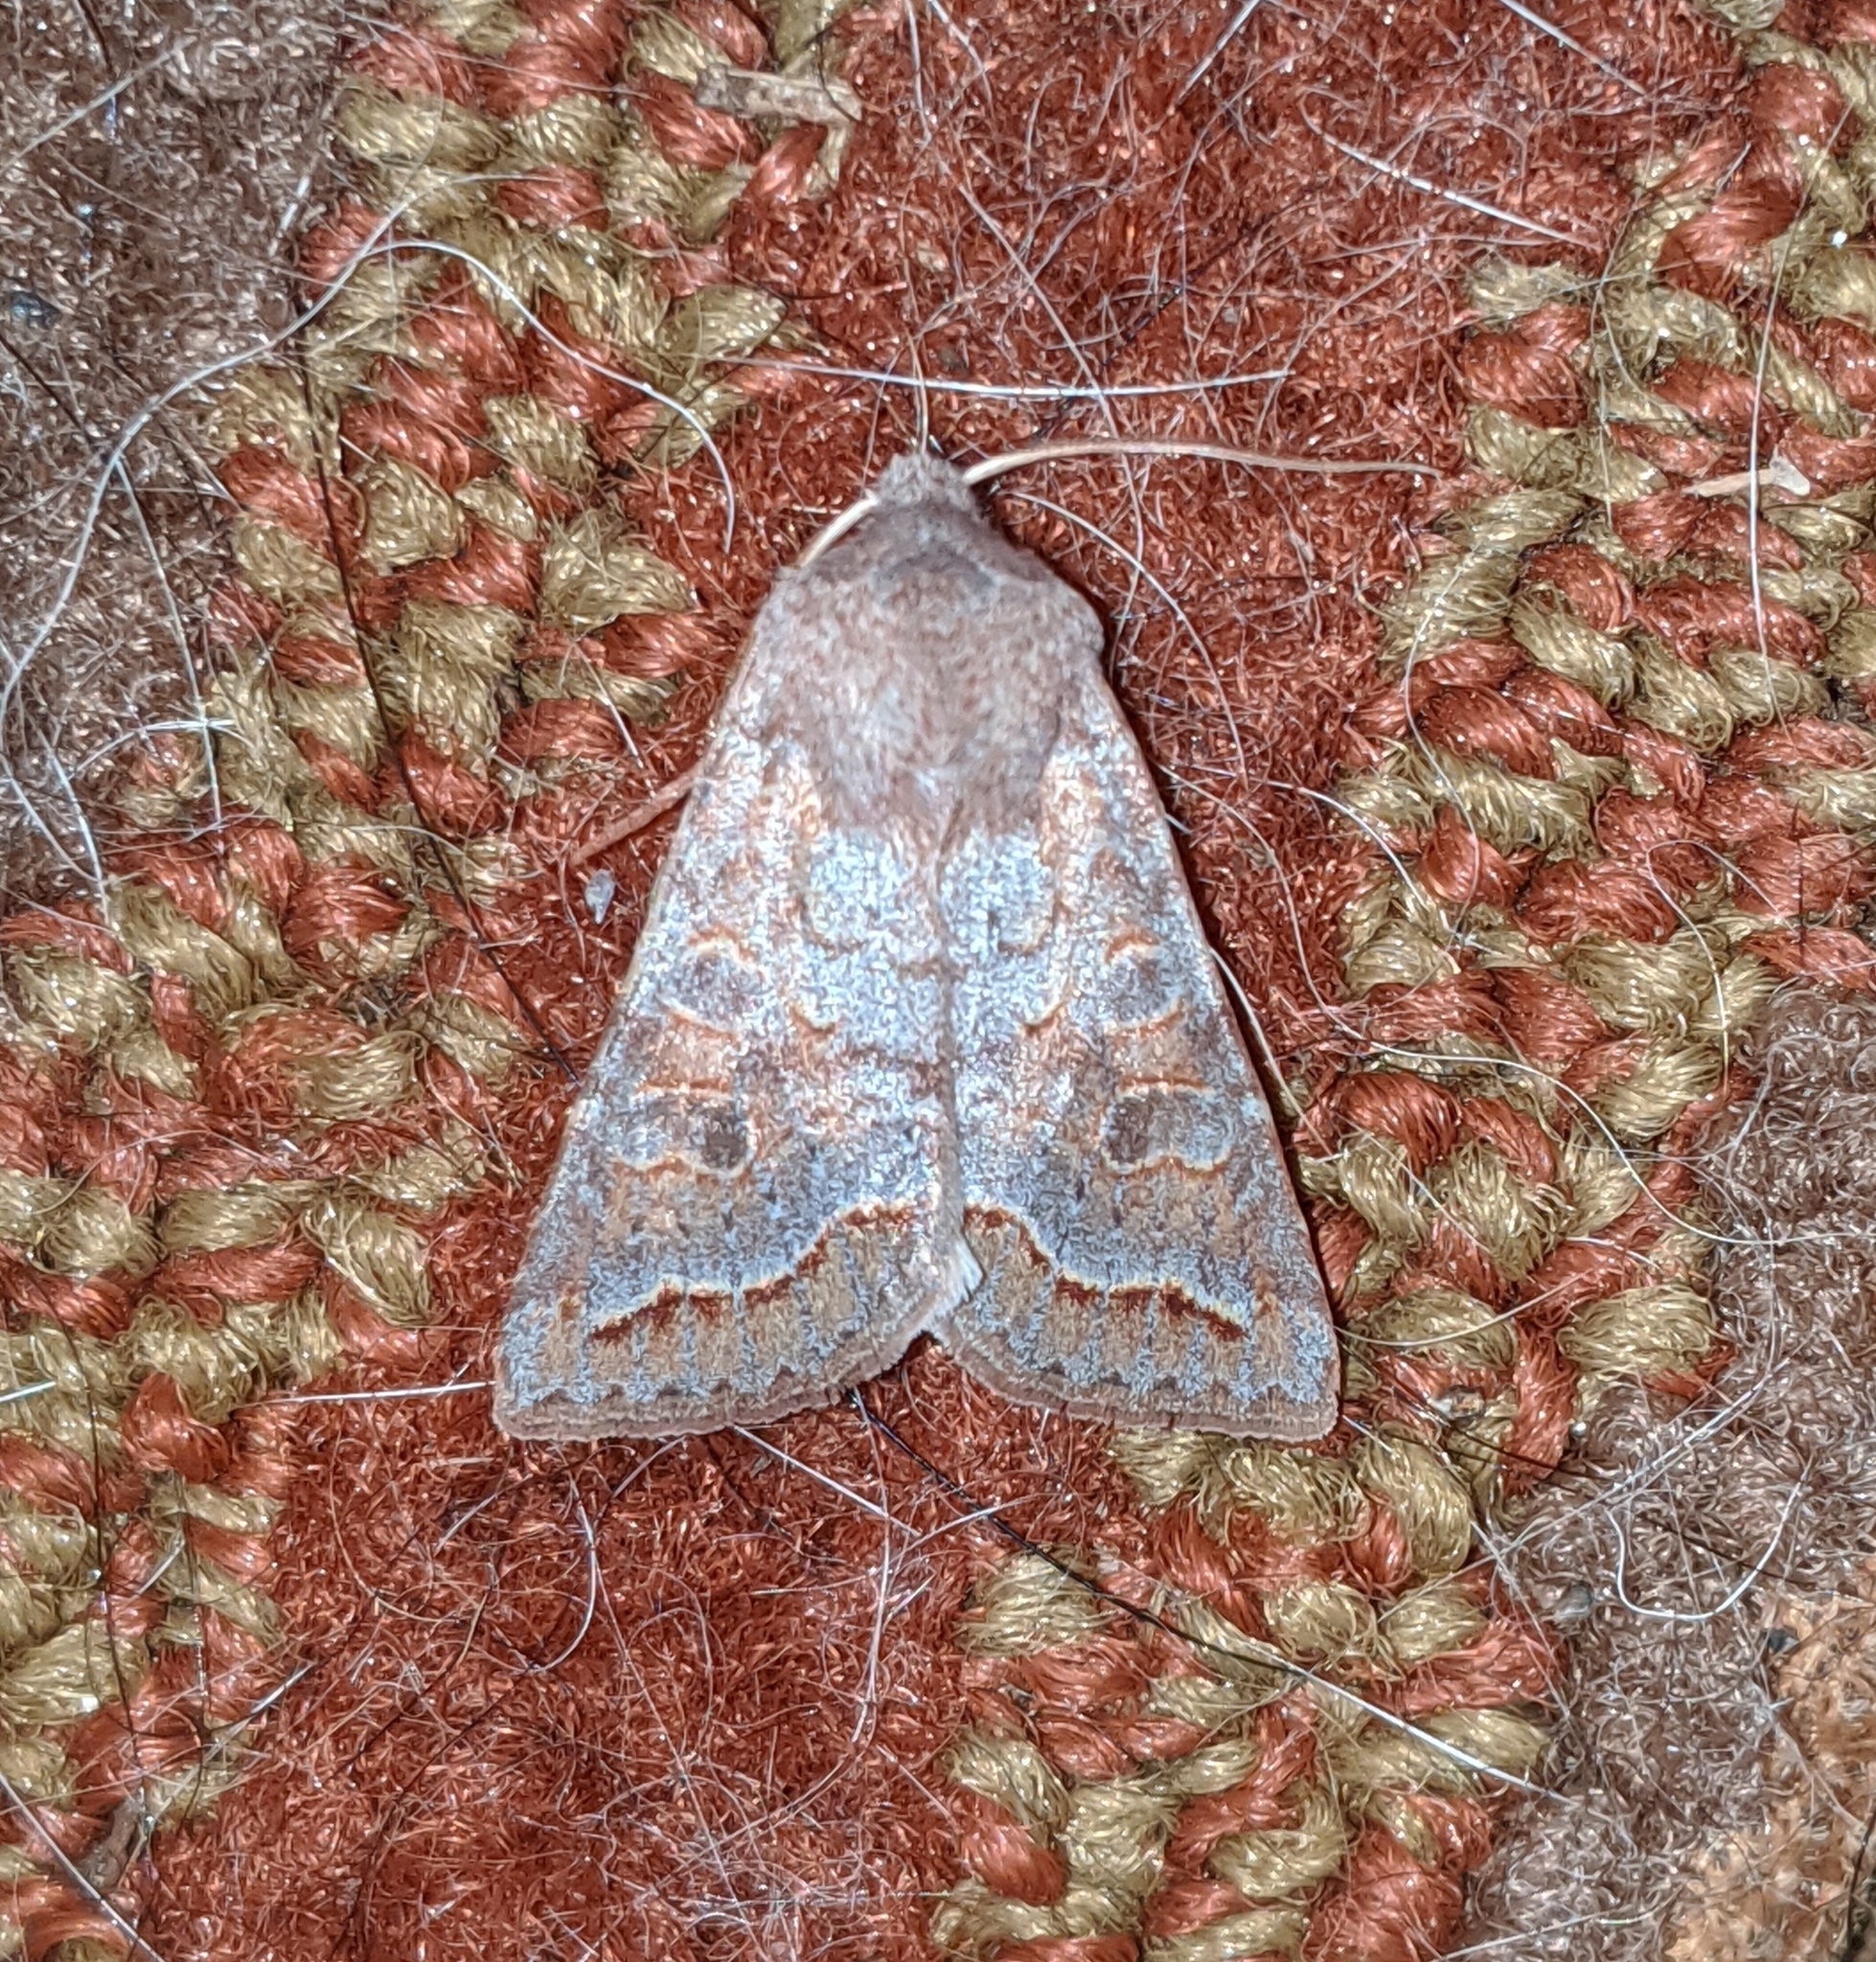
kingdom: Animalia
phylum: Arthropoda
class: Insecta
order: Lepidoptera
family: Noctuidae
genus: Orthosia
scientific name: Orthosia revicta
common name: Rusty whitesided caterpillar
